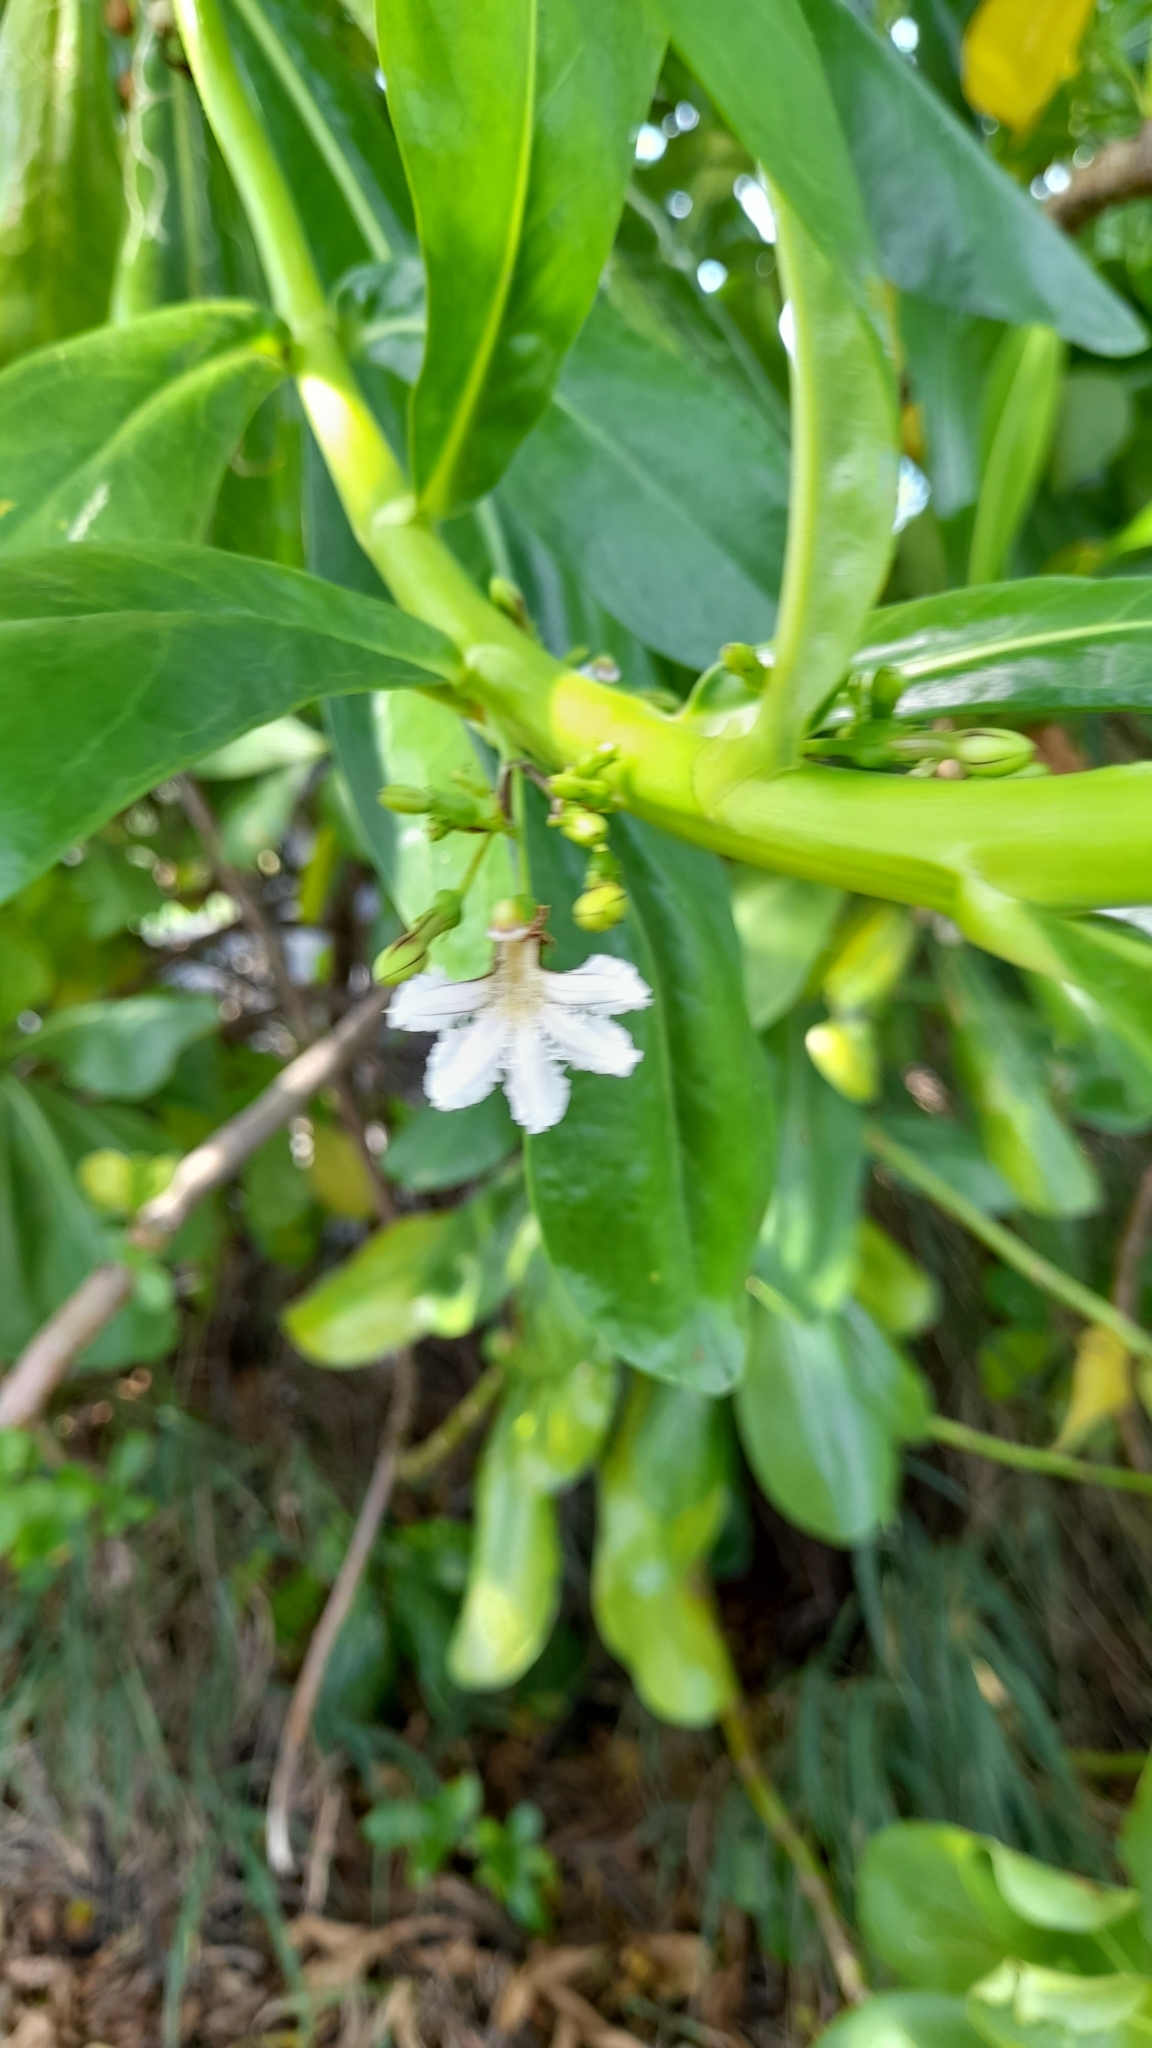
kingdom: Plantae
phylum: Tracheophyta
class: Magnoliopsida
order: Asterales
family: Goodeniaceae
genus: Scaevola
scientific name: Scaevola taccada
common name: Sea lettucetree
